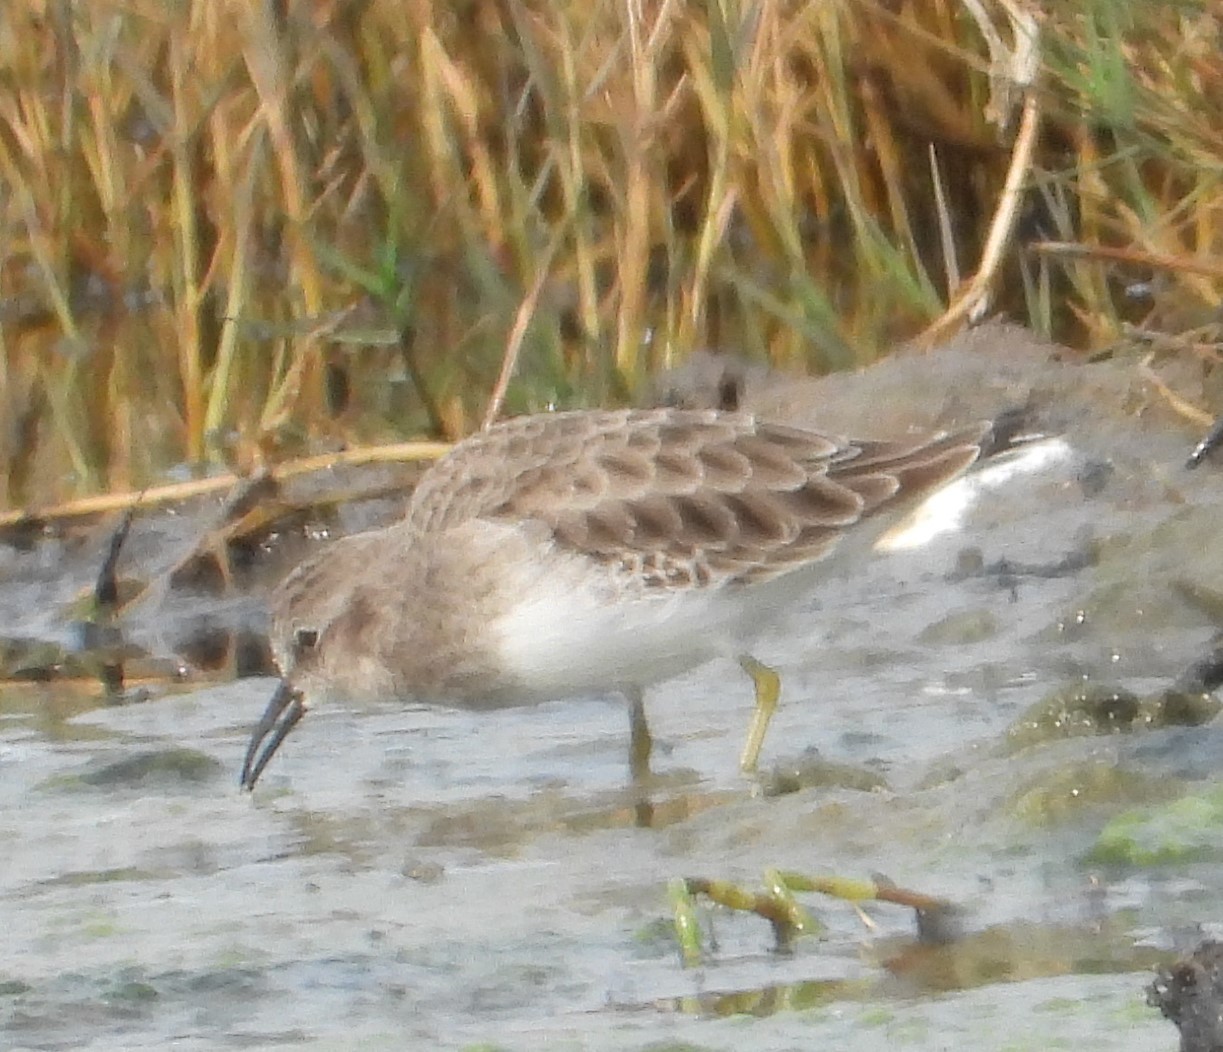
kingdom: Animalia
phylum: Chordata
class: Aves
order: Charadriiformes
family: Scolopacidae
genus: Calidris
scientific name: Calidris minutilla
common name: Least sandpiper
